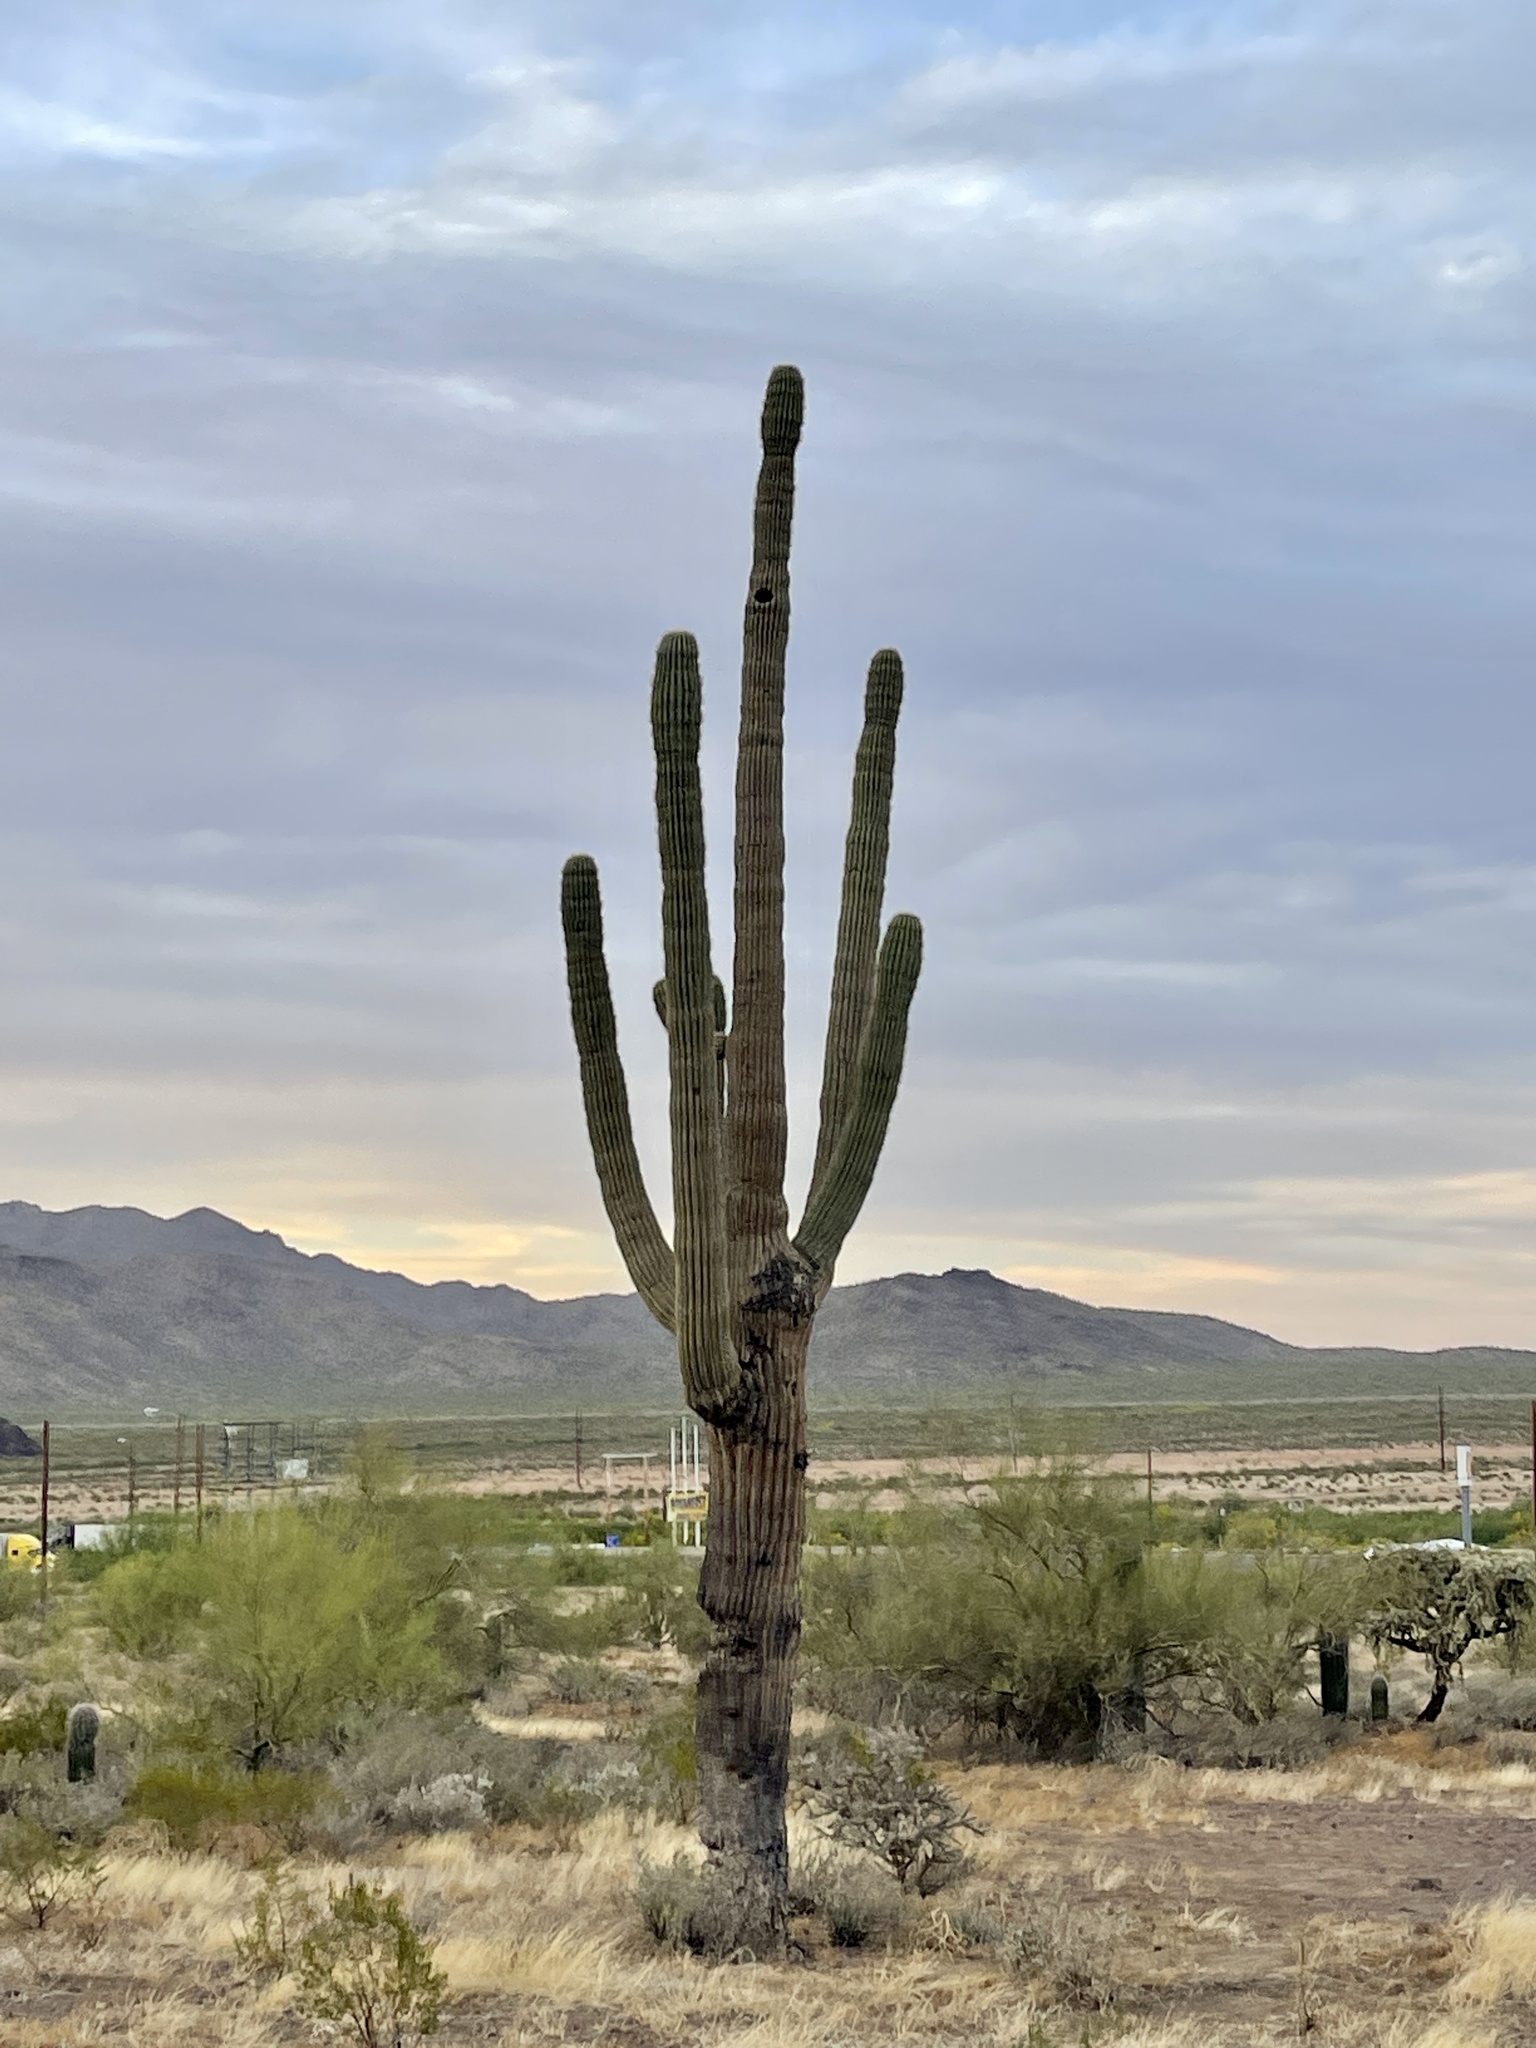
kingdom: Plantae
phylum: Tracheophyta
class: Magnoliopsida
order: Caryophyllales
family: Cactaceae
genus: Carnegiea
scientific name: Carnegiea gigantea
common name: Saguaro
